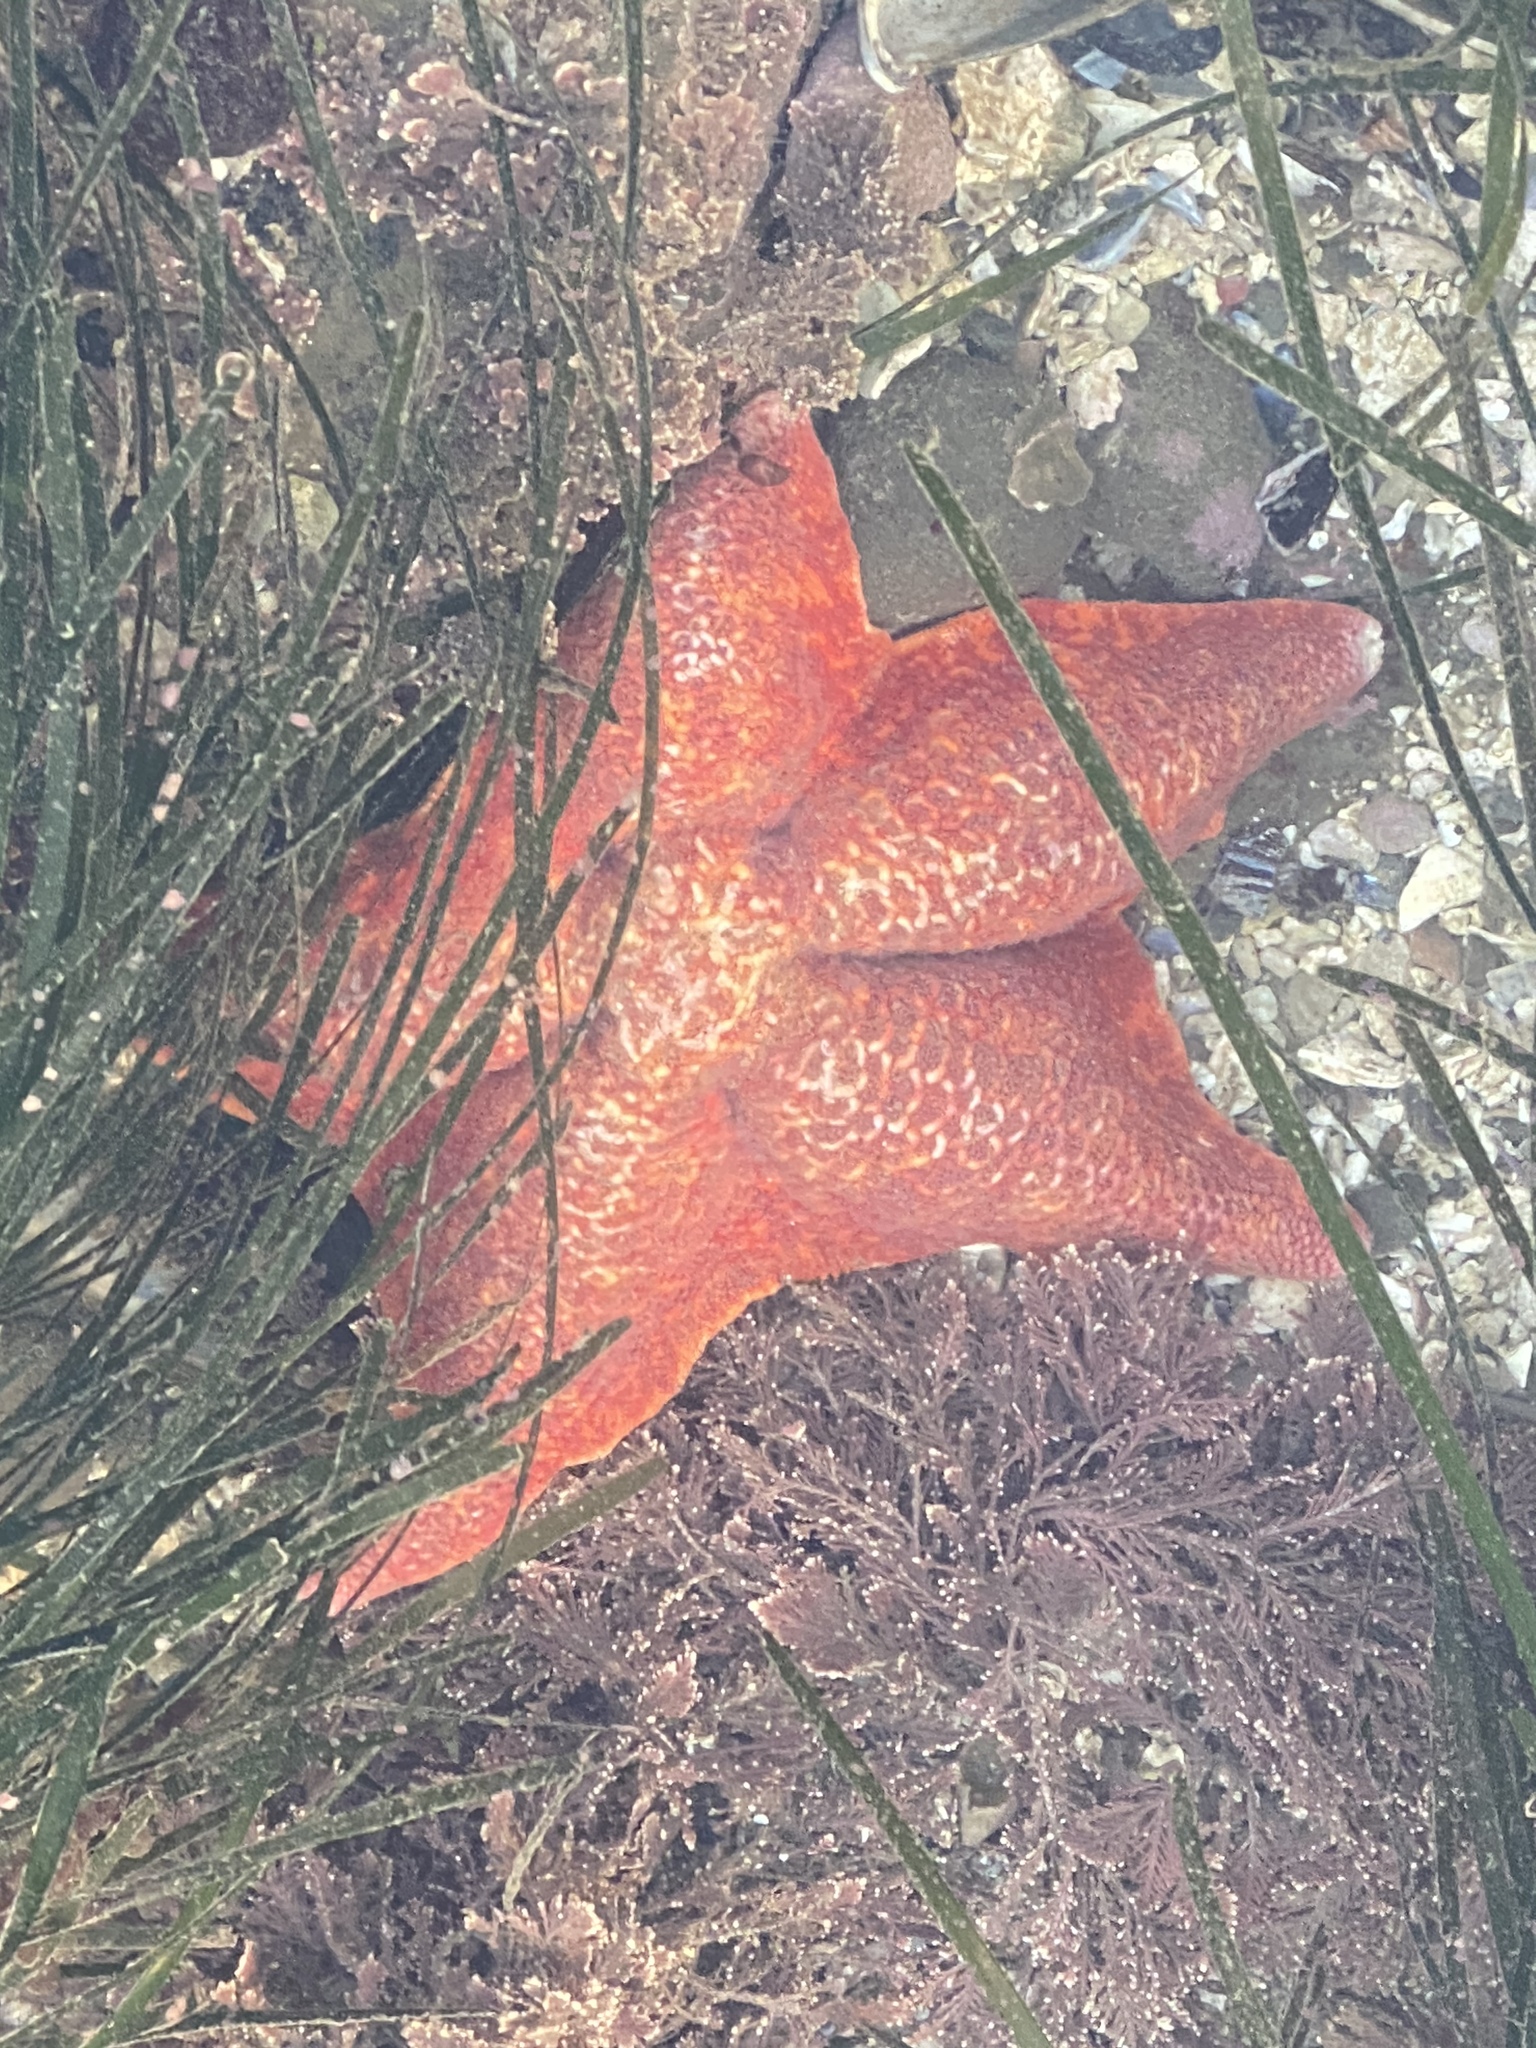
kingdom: Animalia
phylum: Echinodermata
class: Asteroidea
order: Valvatida
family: Asterinidae
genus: Patiria
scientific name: Patiria miniata
